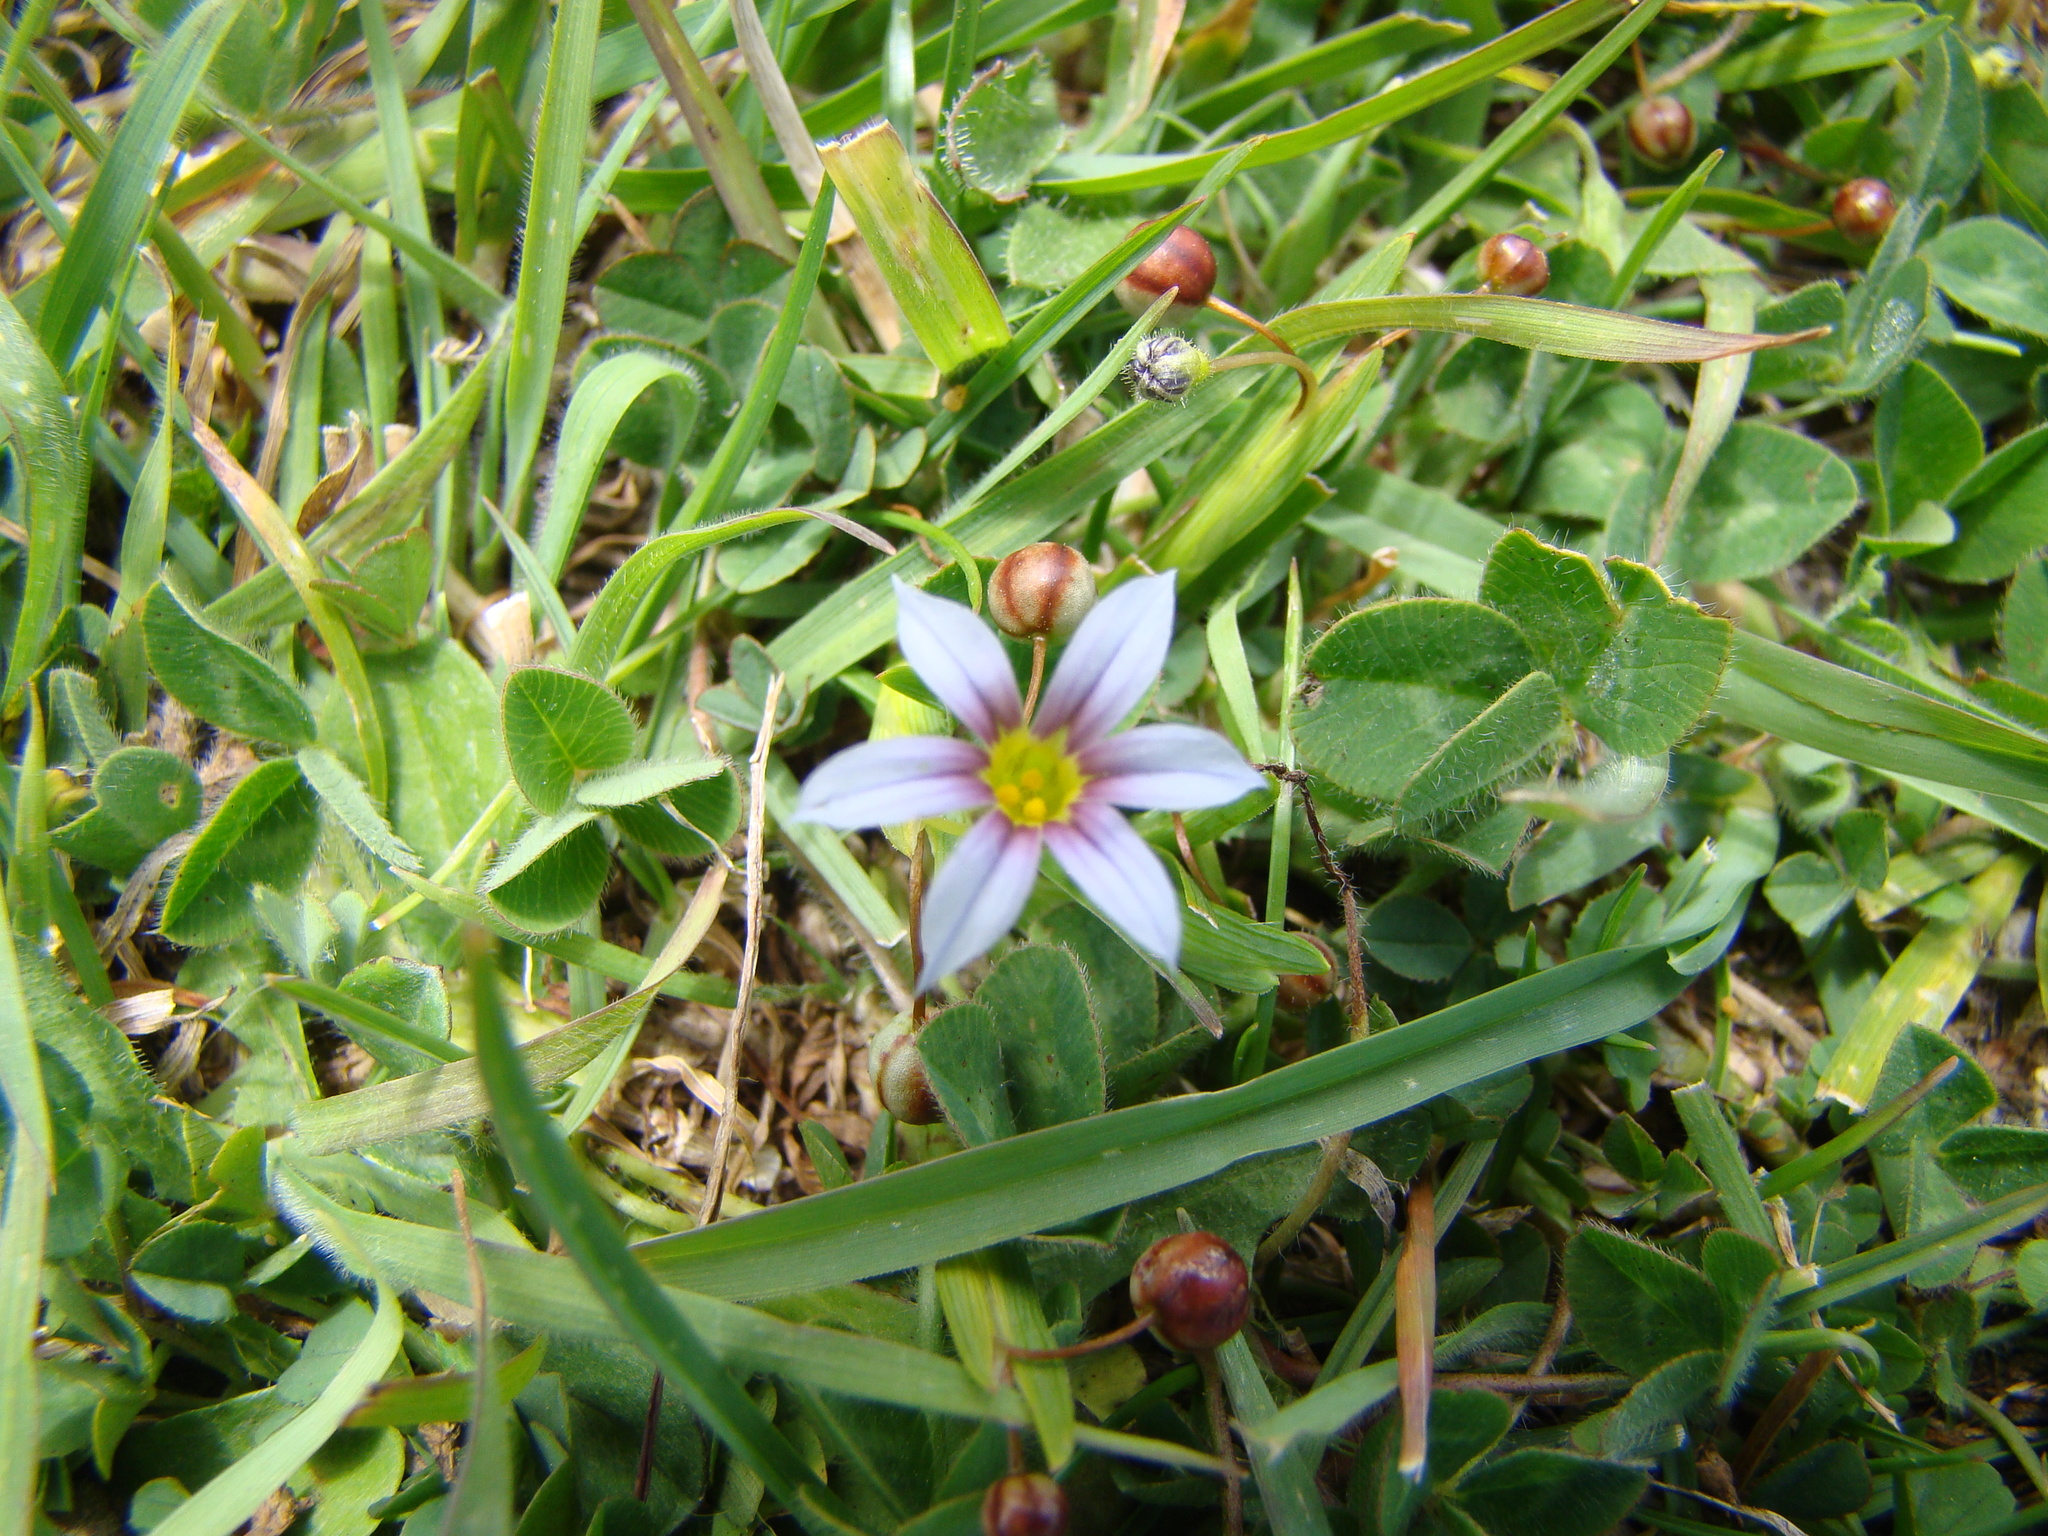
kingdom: Plantae
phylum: Tracheophyta
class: Liliopsida
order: Asparagales
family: Iridaceae
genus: Sisyrinchium
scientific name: Sisyrinchium micranthum
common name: Bermuda pigroot
